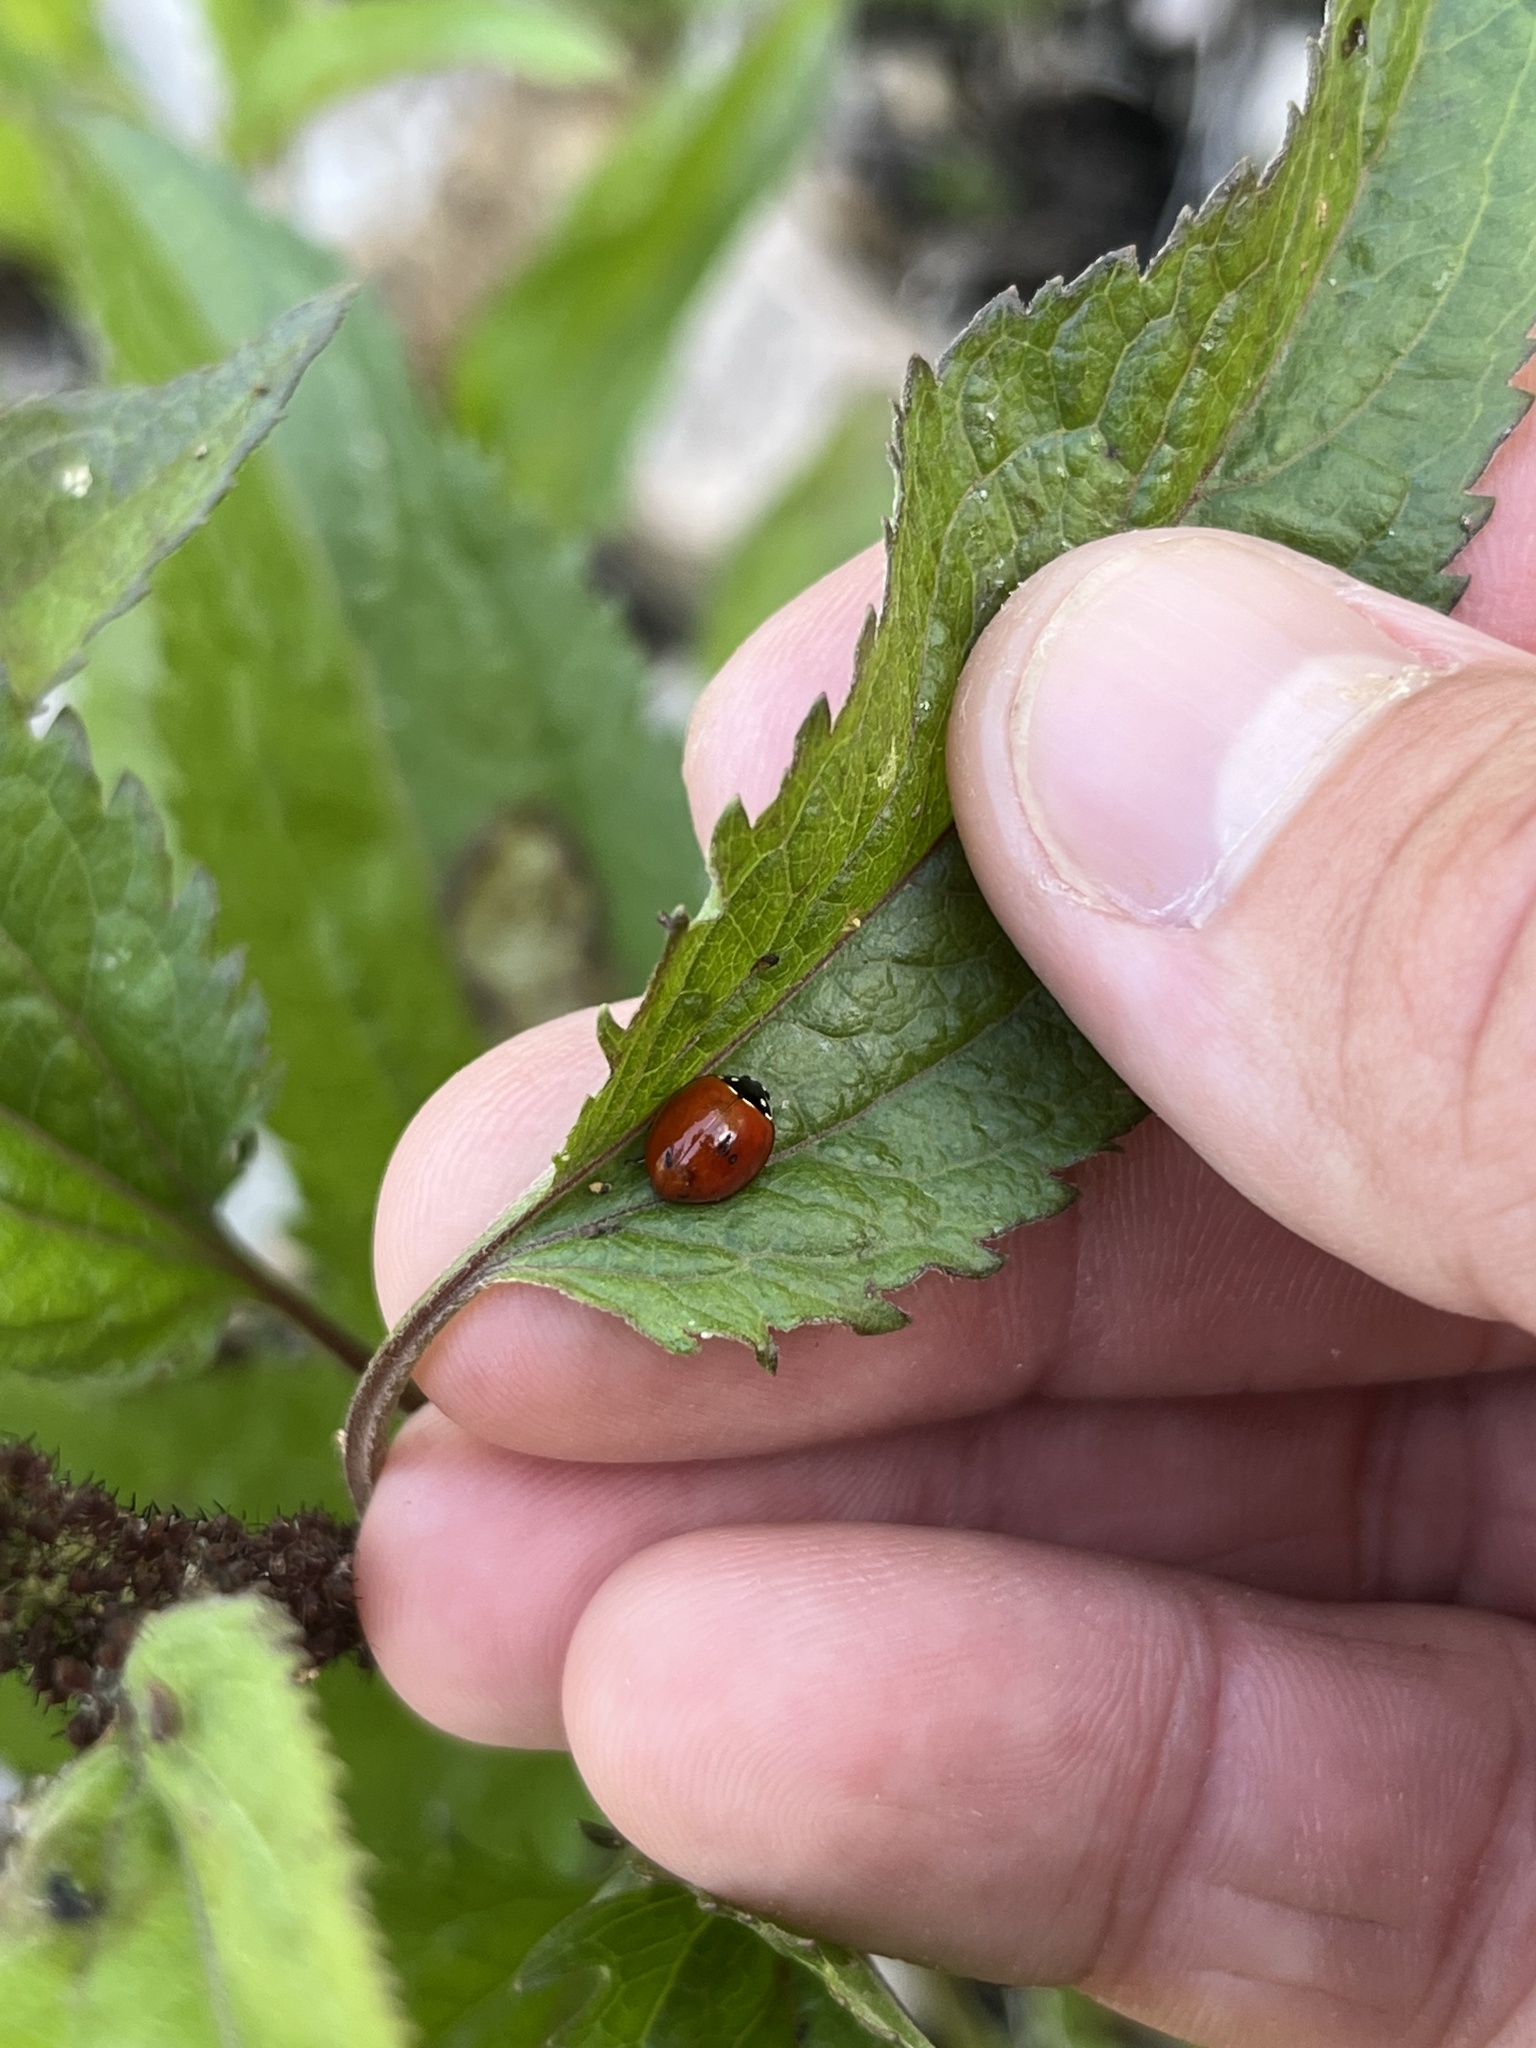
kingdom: Animalia
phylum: Arthropoda
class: Insecta
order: Coleoptera
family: Coccinellidae
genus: Cycloneda
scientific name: Cycloneda sanguinea
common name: Ladybird beetle
